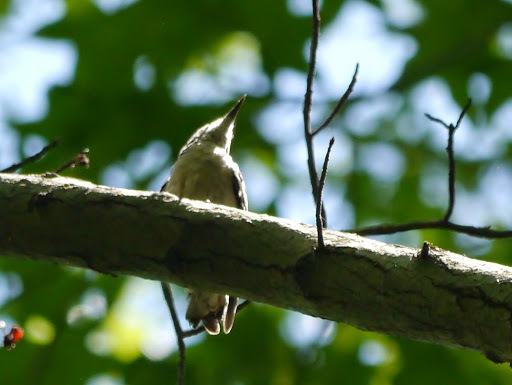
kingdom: Animalia
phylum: Chordata
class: Aves
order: Piciformes
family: Picidae
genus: Leuconotopicus
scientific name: Leuconotopicus villosus
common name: Hairy woodpecker
